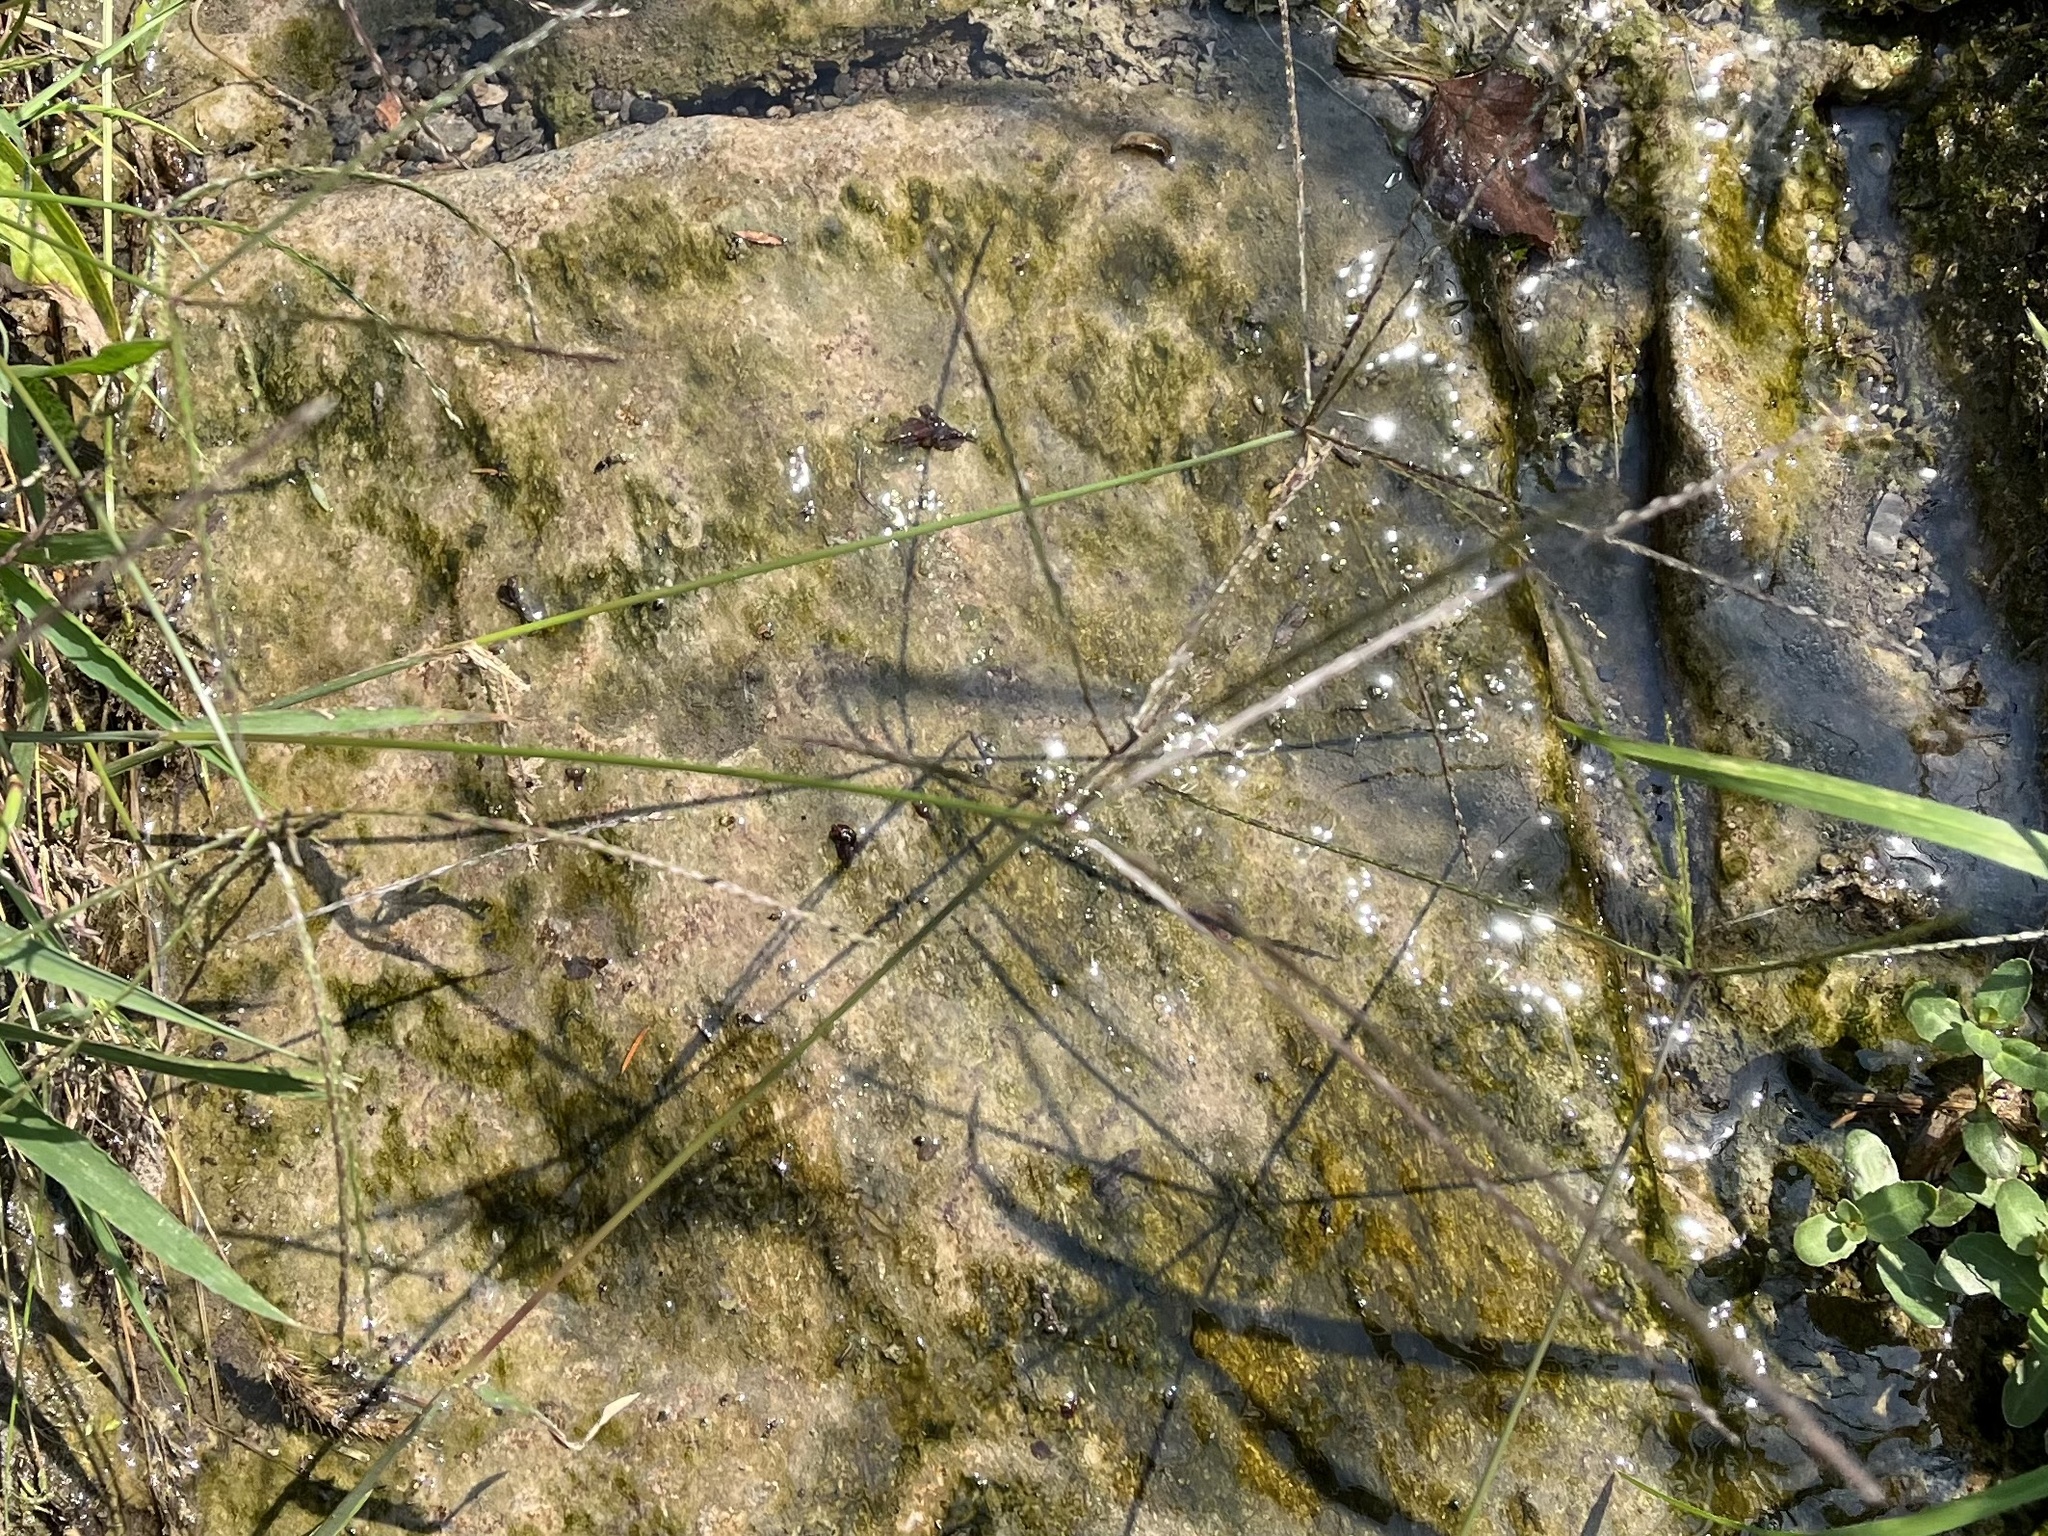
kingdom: Plantae
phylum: Tracheophyta
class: Liliopsida
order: Poales
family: Poaceae
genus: Digitaria
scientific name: Digitaria sanguinalis
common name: Hairy crabgrass
